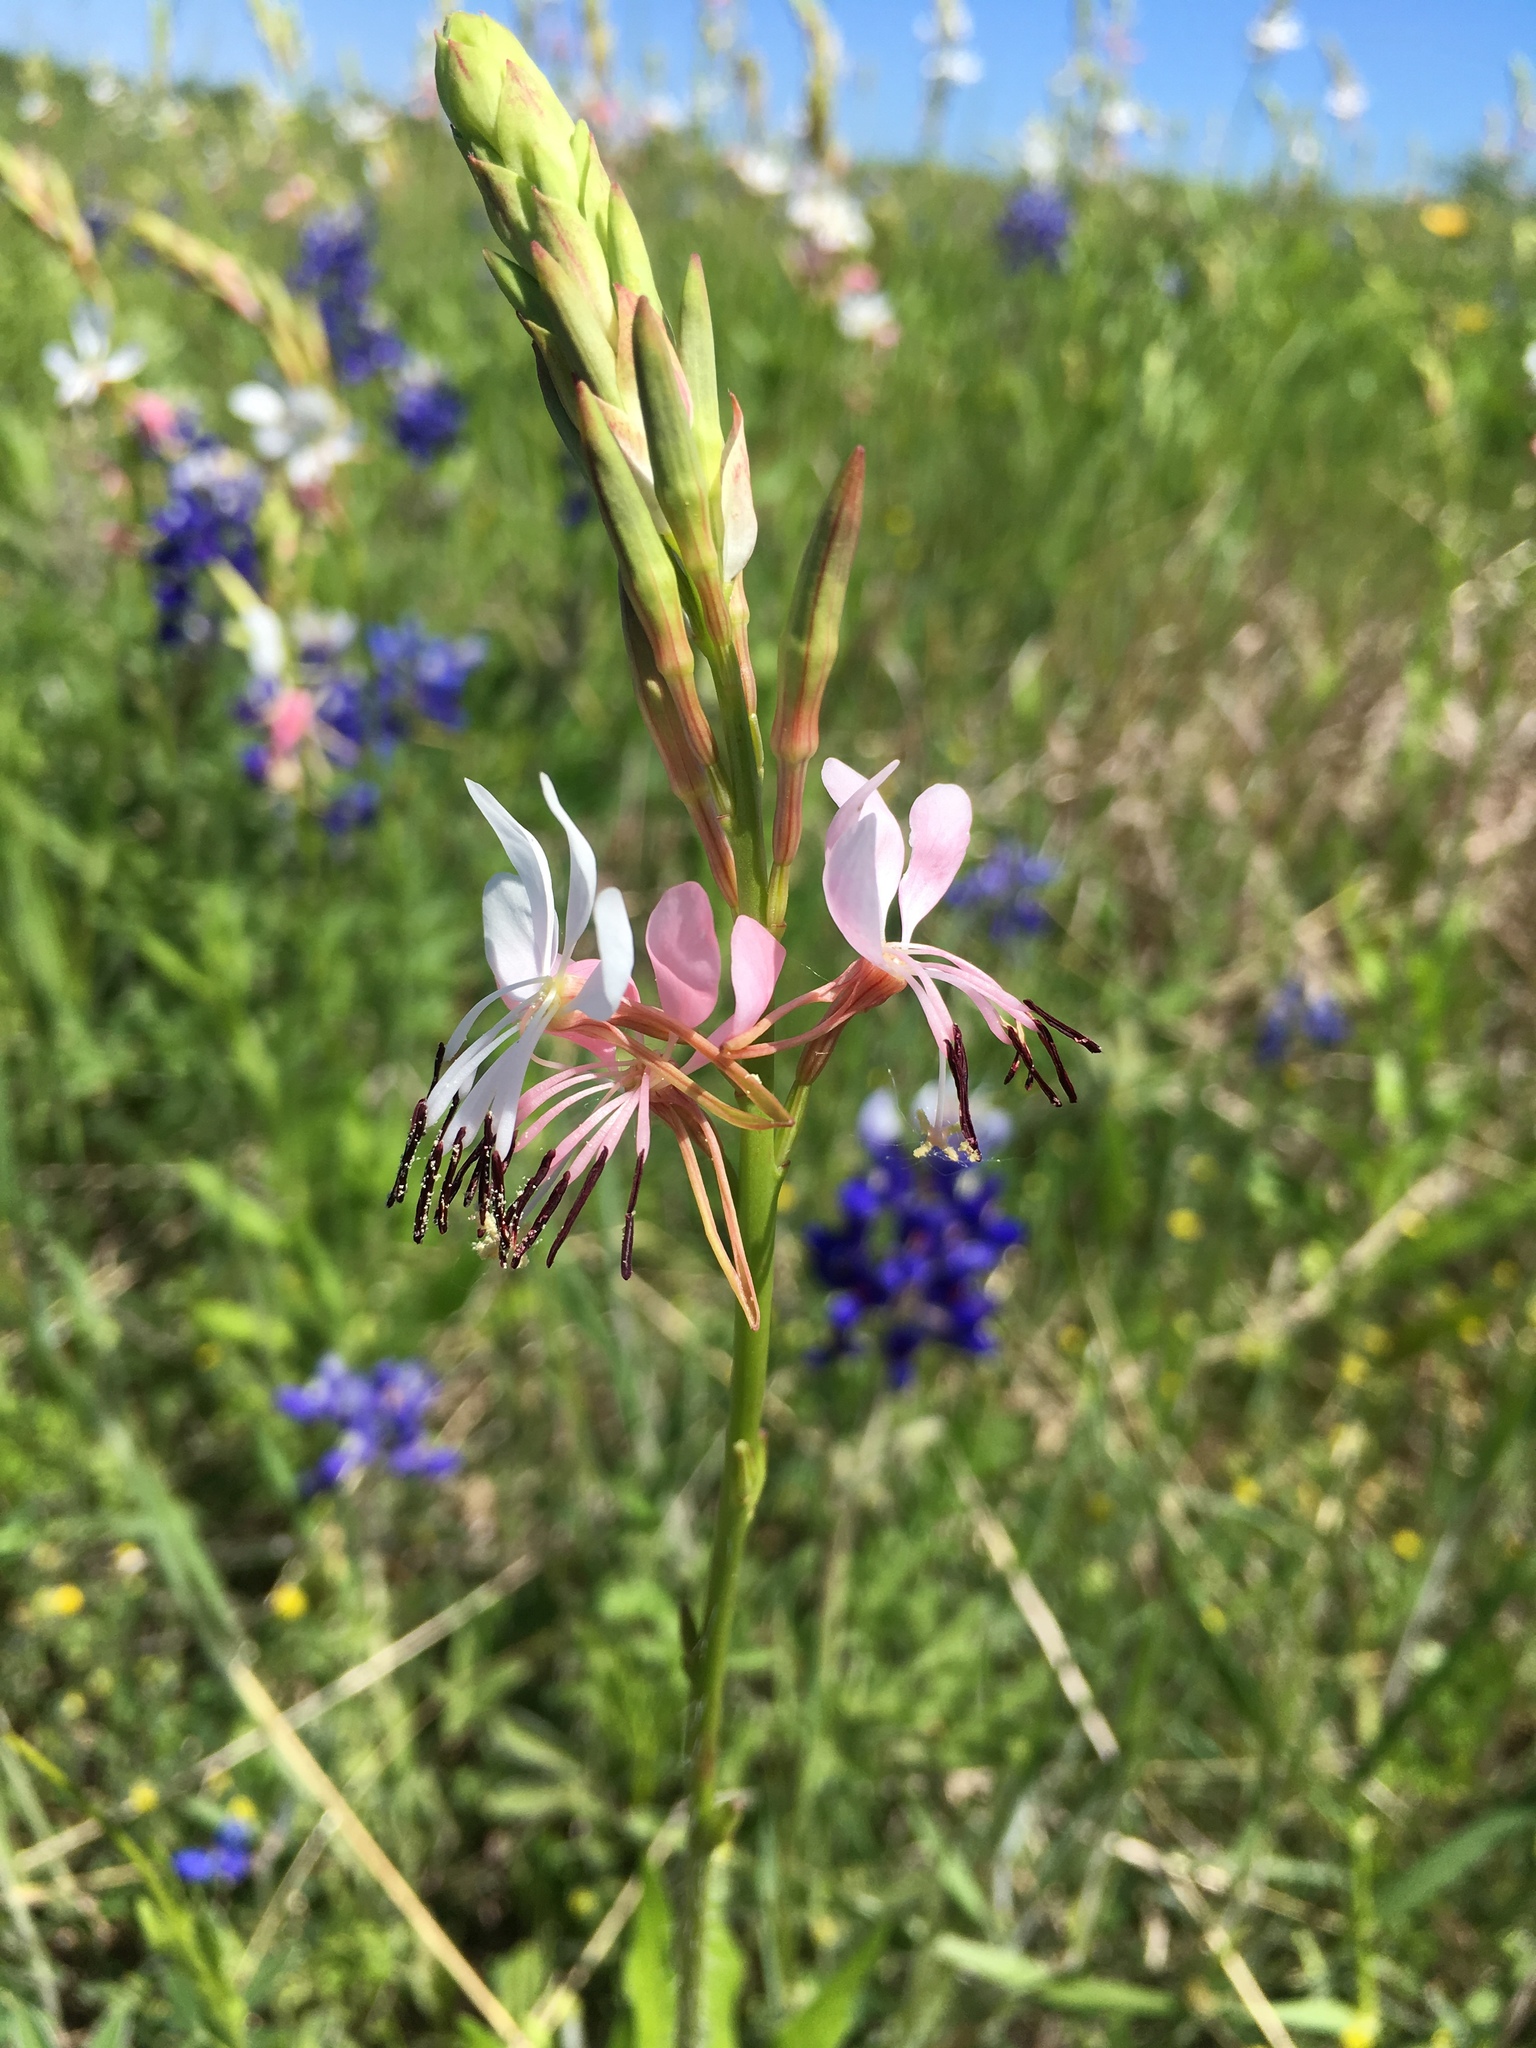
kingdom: Plantae
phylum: Tracheophyta
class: Magnoliopsida
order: Myrtales
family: Onagraceae
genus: Oenothera
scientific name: Oenothera suffulta
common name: Kisses
